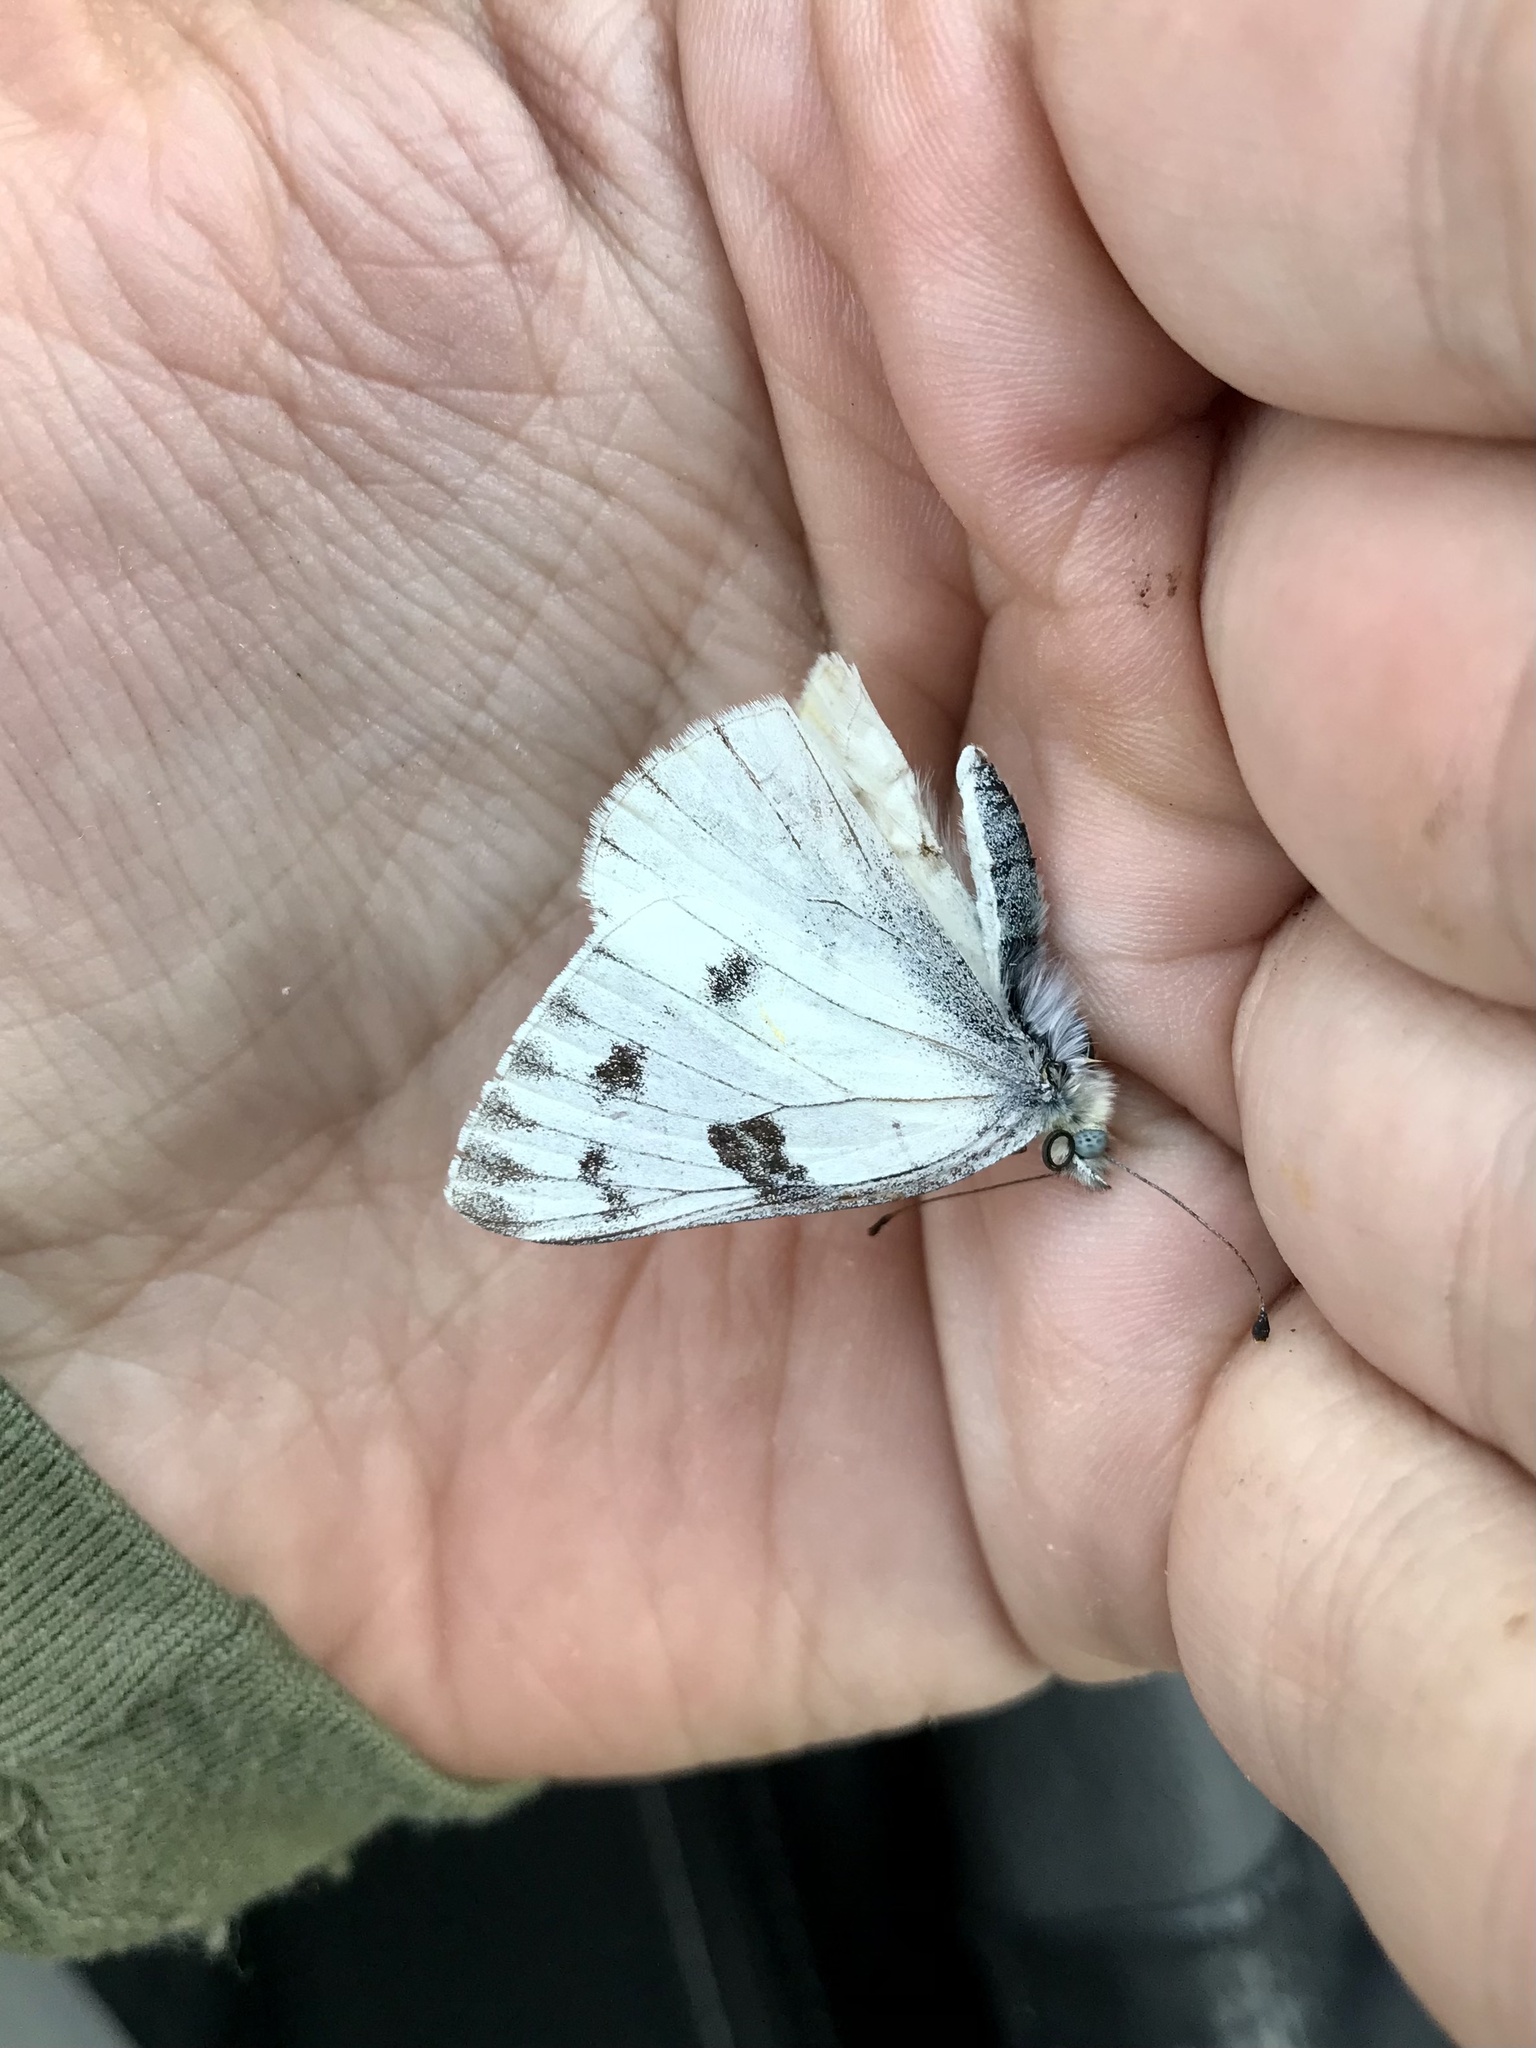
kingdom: Animalia
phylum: Arthropoda
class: Insecta
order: Lepidoptera
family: Pieridae
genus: Pontia
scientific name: Pontia occidentalis
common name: Western white
